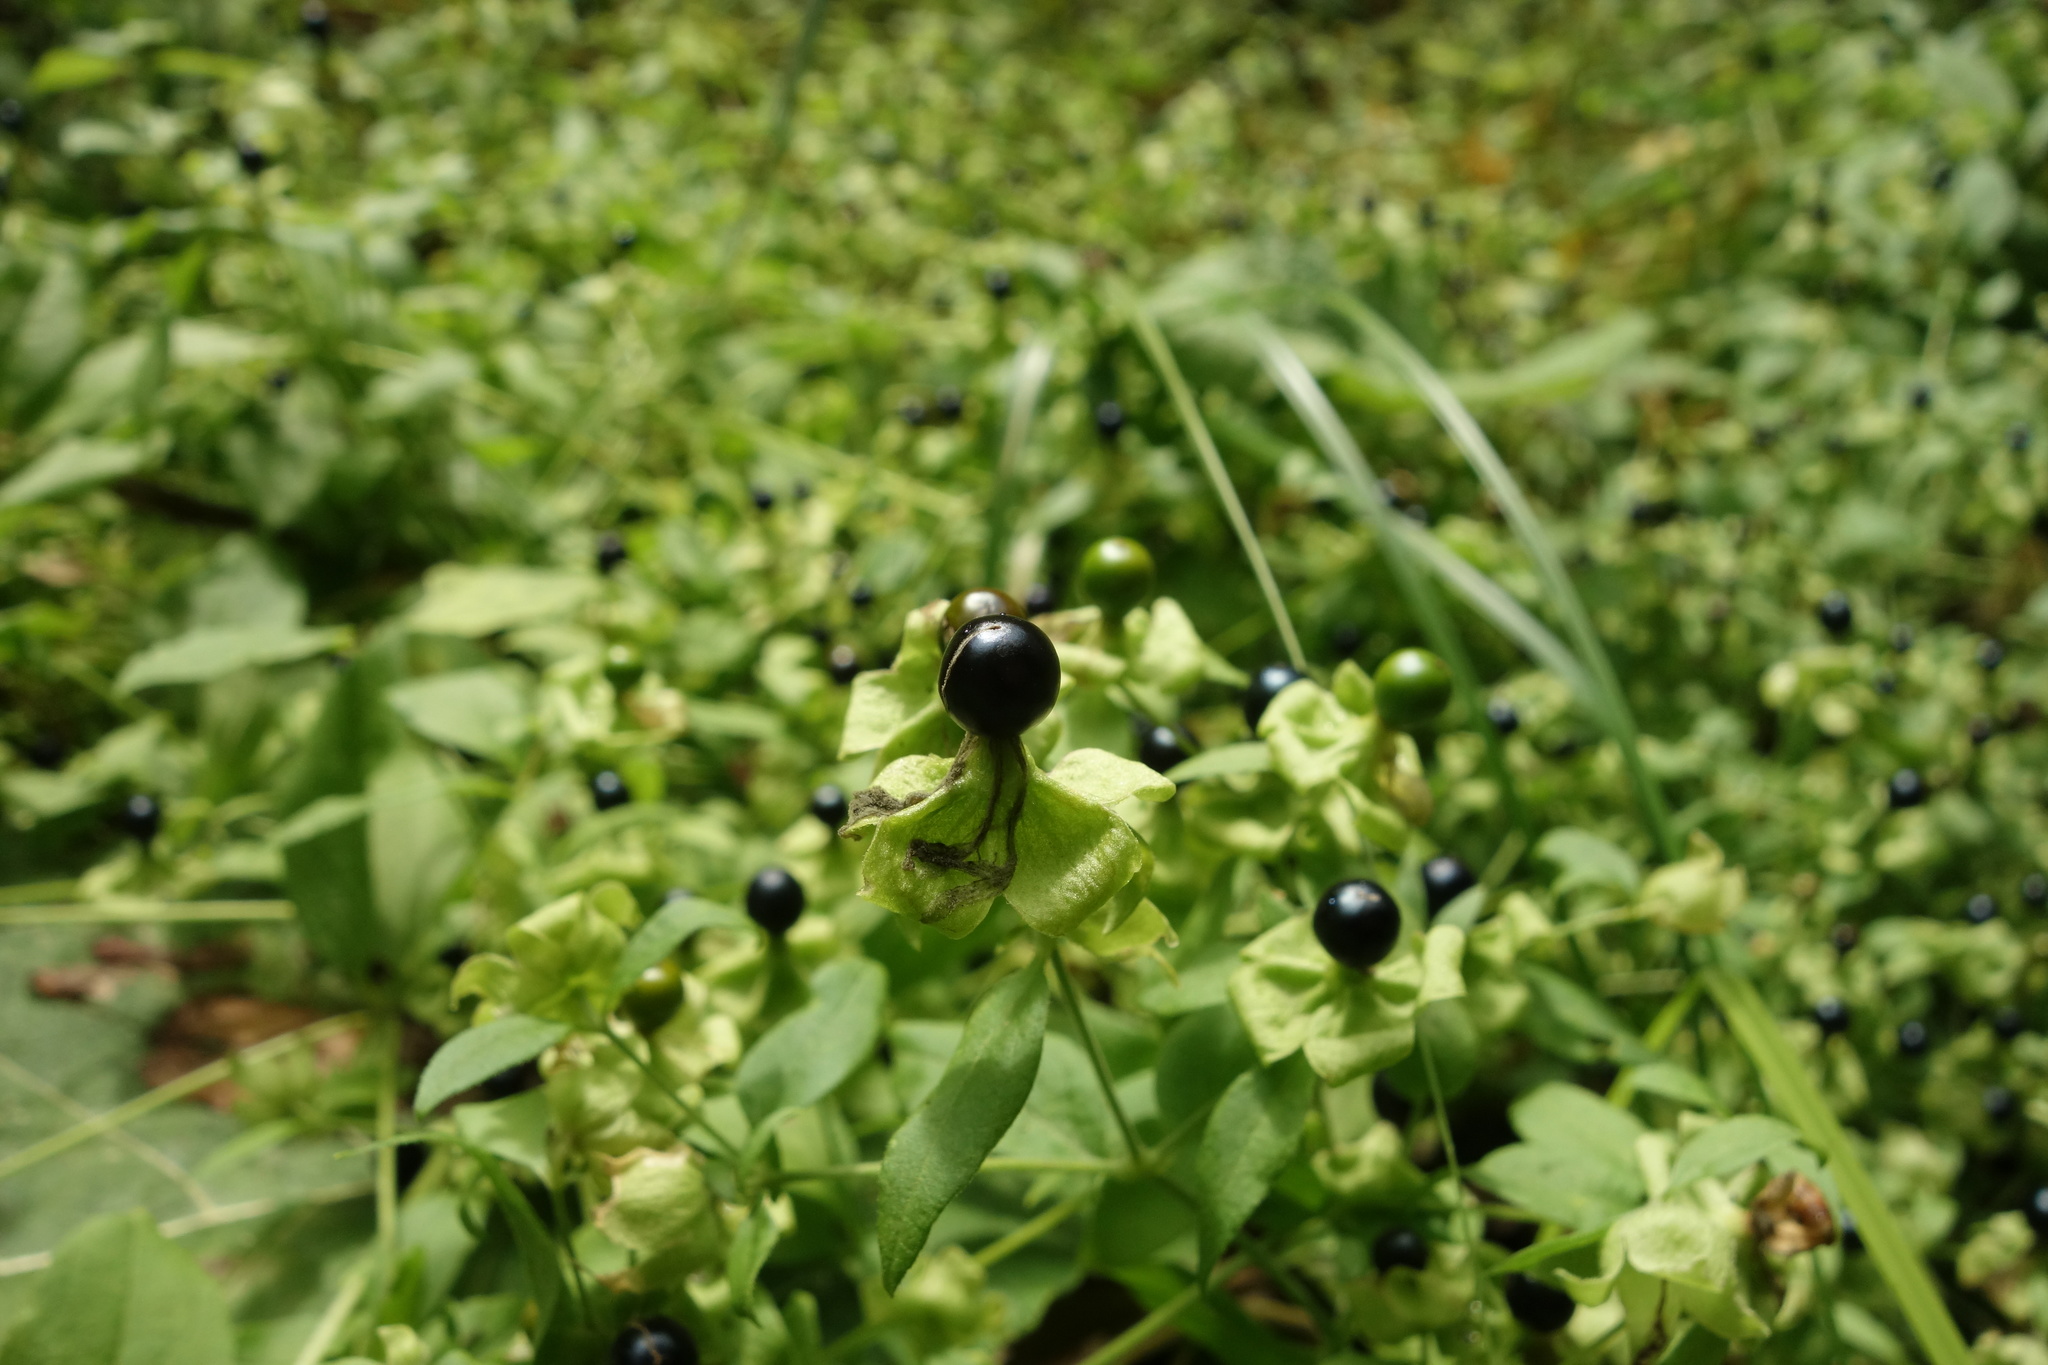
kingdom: Plantae
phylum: Tracheophyta
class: Magnoliopsida
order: Caryophyllales
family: Caryophyllaceae
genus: Silene
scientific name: Silene baccifera
